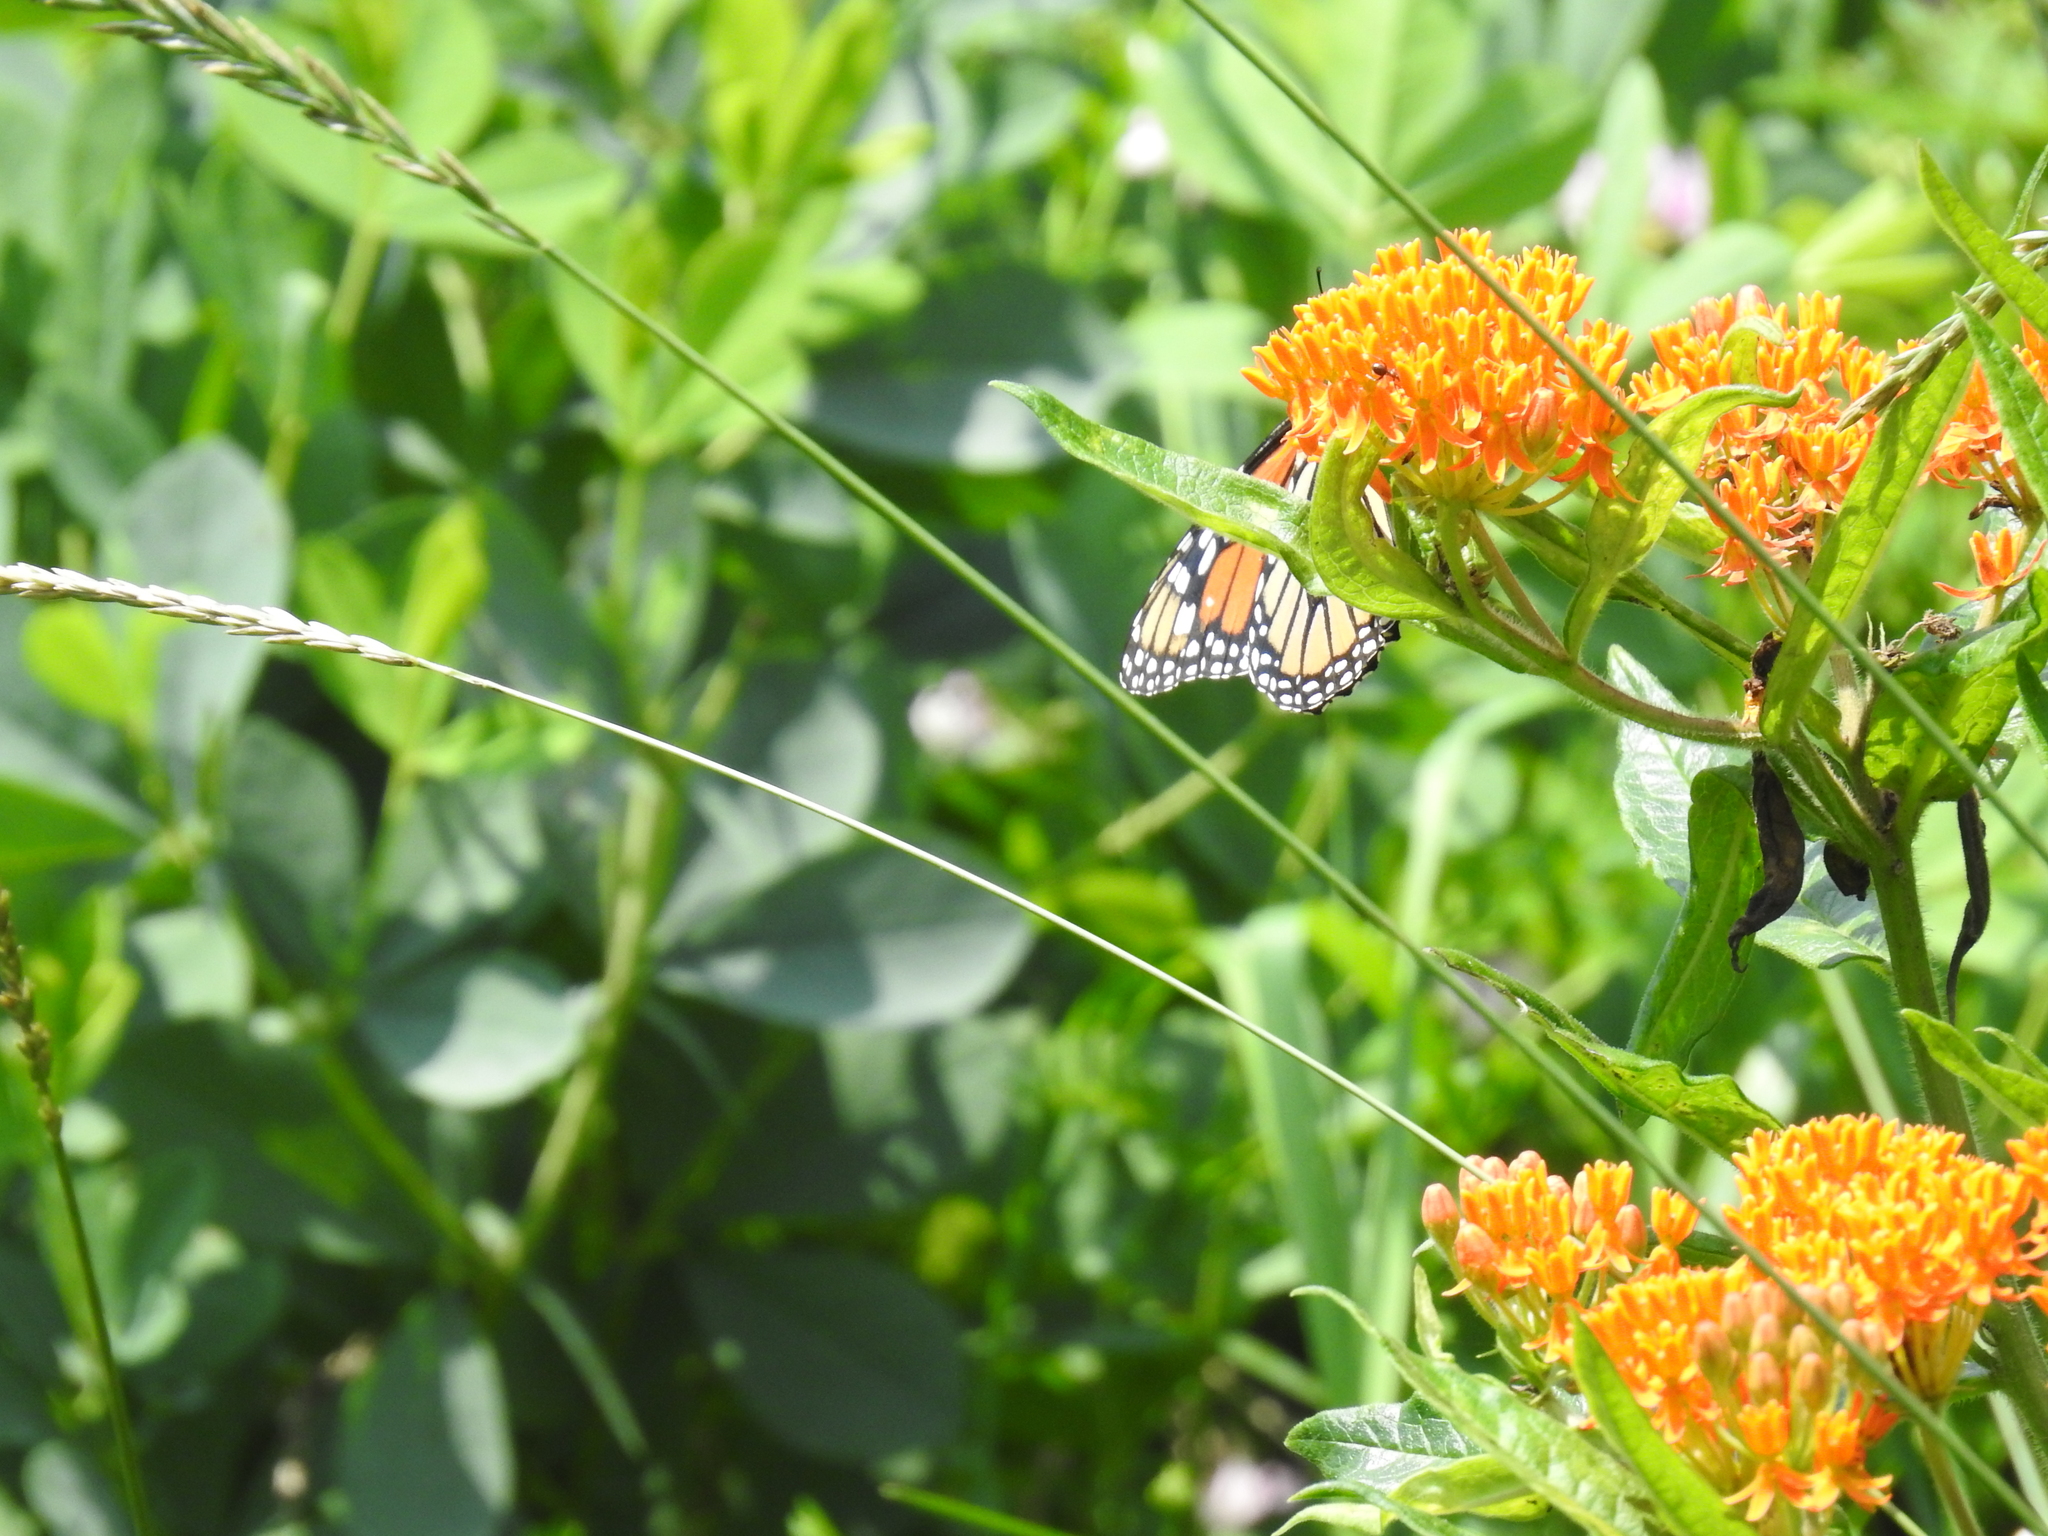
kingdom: Animalia
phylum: Arthropoda
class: Insecta
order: Lepidoptera
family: Nymphalidae
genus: Danaus
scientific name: Danaus plexippus
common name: Monarch
